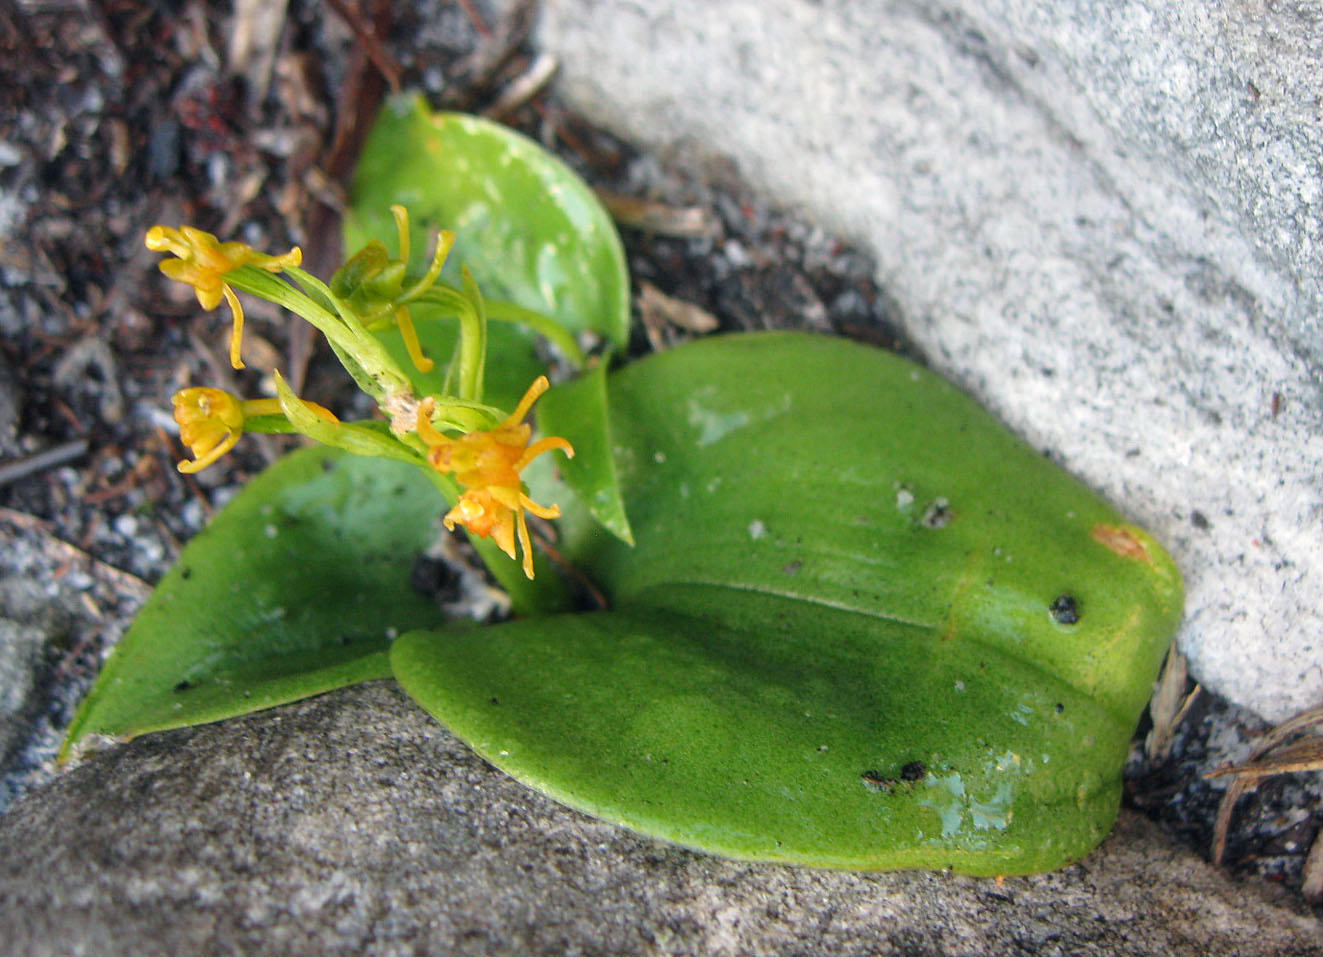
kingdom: Plantae
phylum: Tracheophyta
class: Liliopsida
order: Asparagales
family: Orchidaceae
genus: Liparis
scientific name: Liparis capensis
